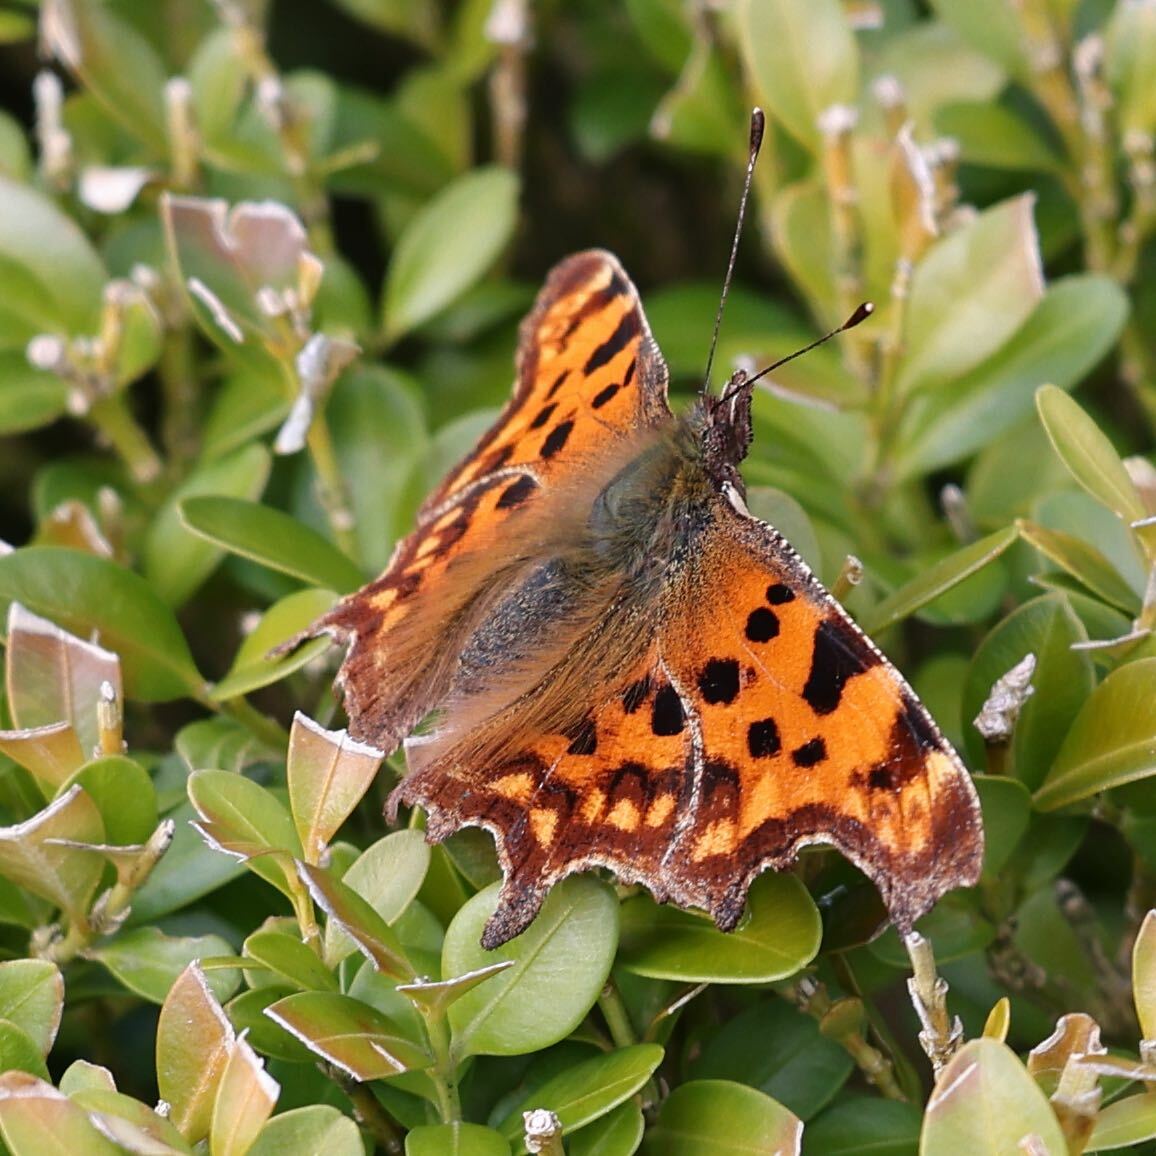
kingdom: Animalia
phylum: Arthropoda
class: Insecta
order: Lepidoptera
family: Nymphalidae
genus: Polygonia
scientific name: Polygonia c-album
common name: Comma
